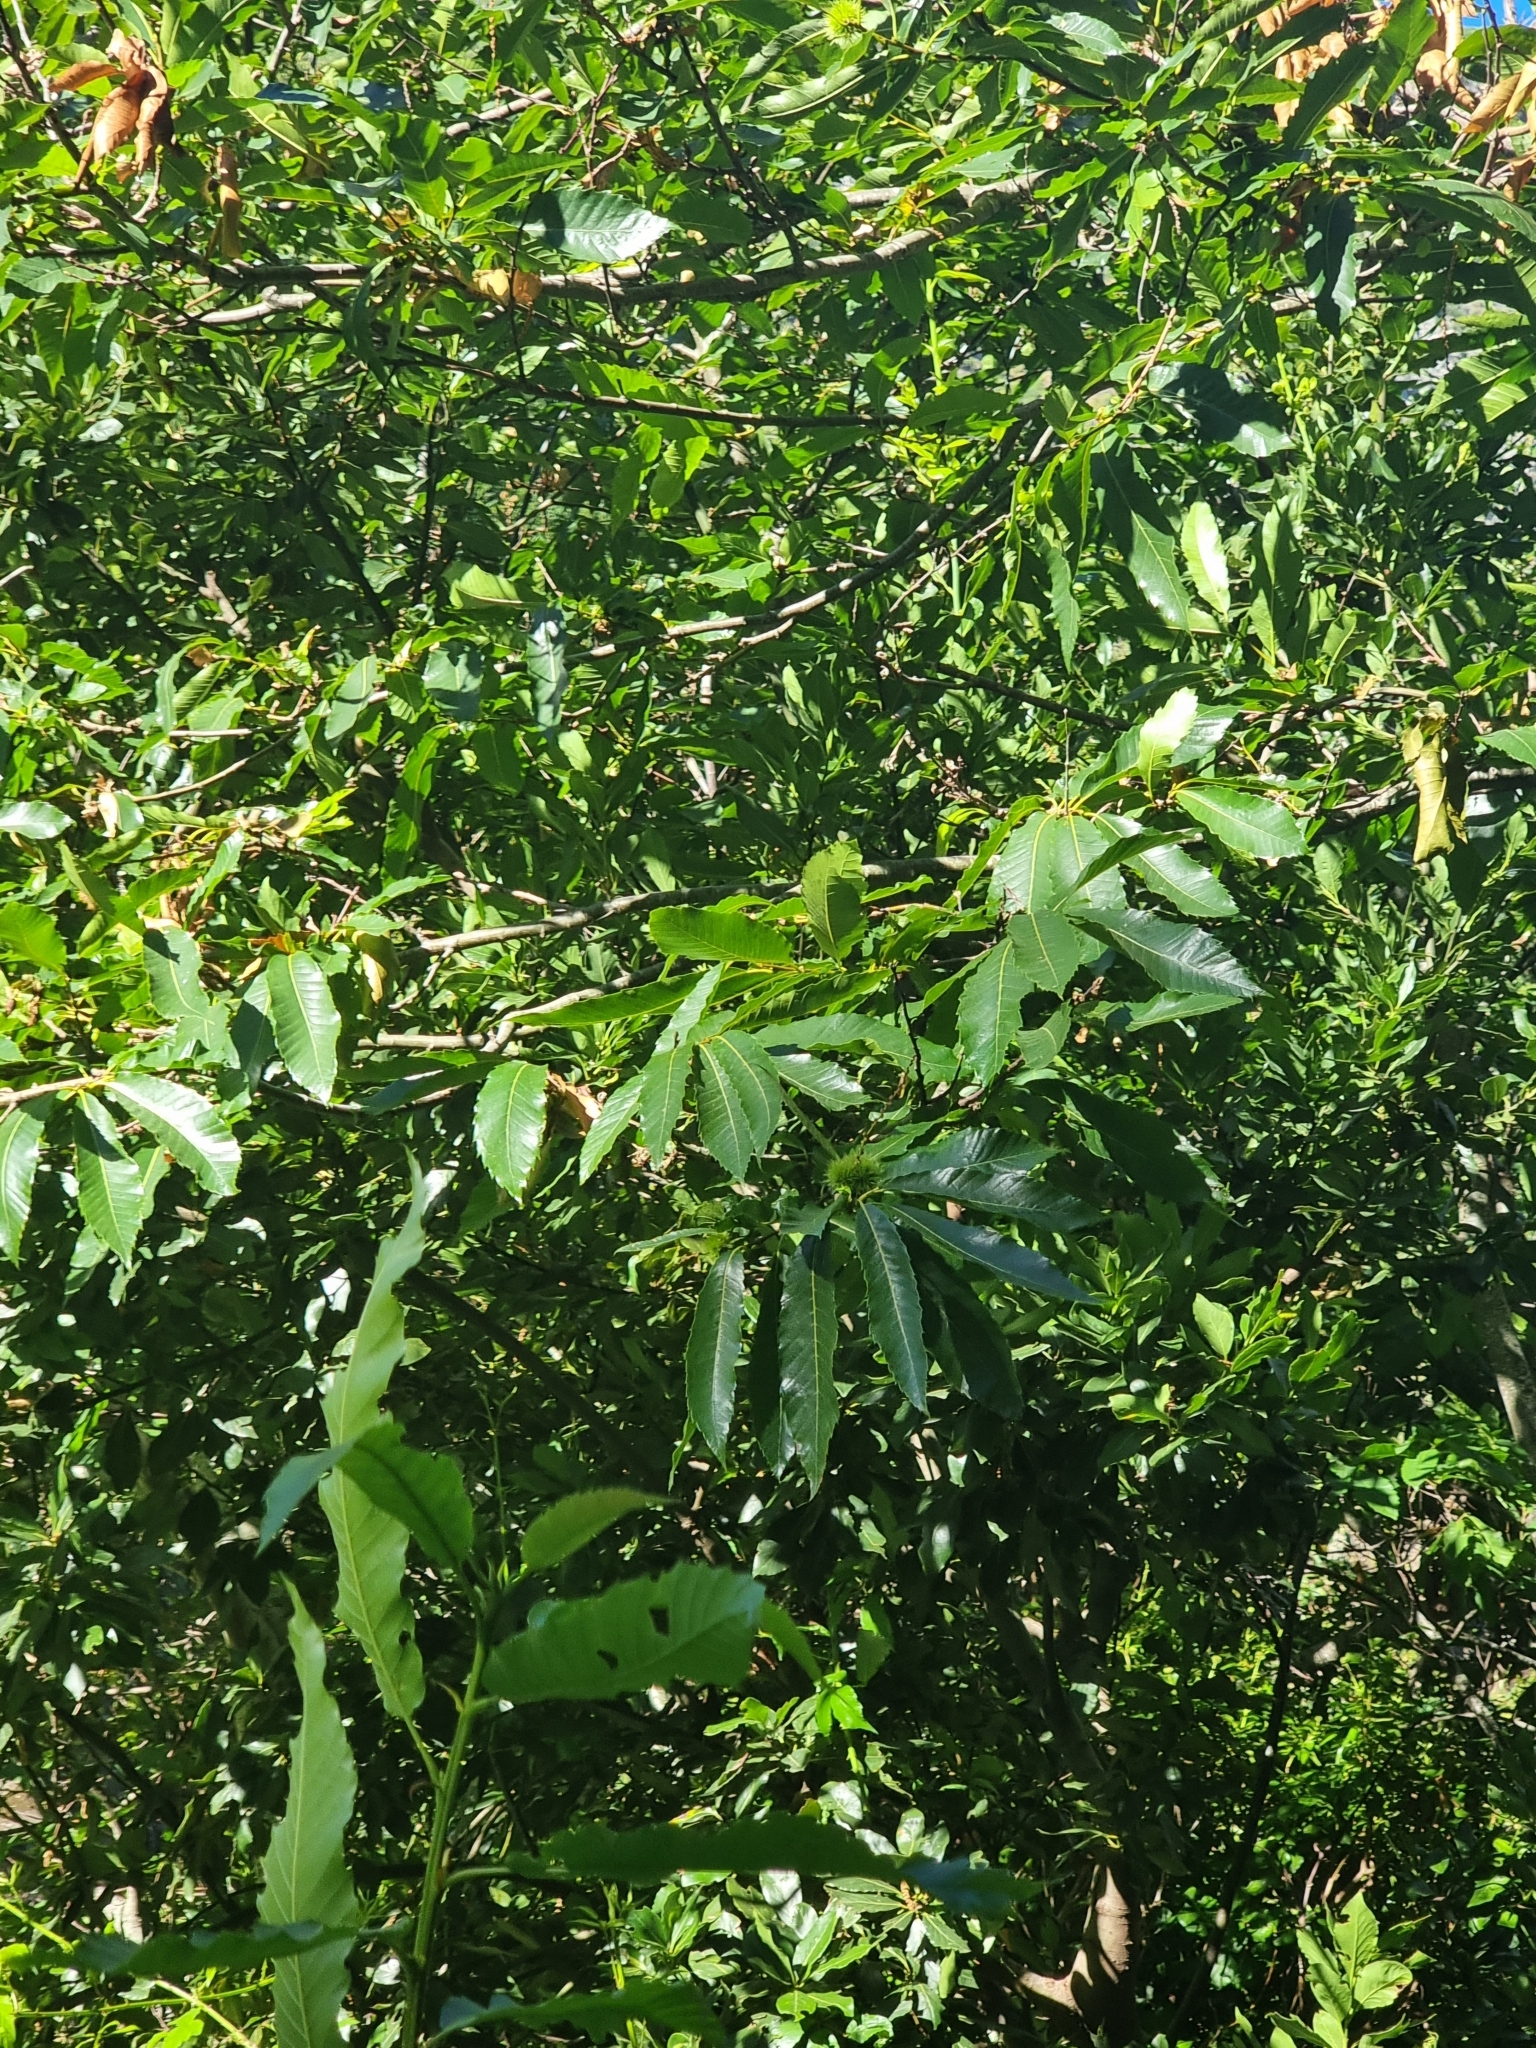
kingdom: Plantae
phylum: Tracheophyta
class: Magnoliopsida
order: Fagales
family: Fagaceae
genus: Castanea
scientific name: Castanea sativa
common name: Sweet chestnut
